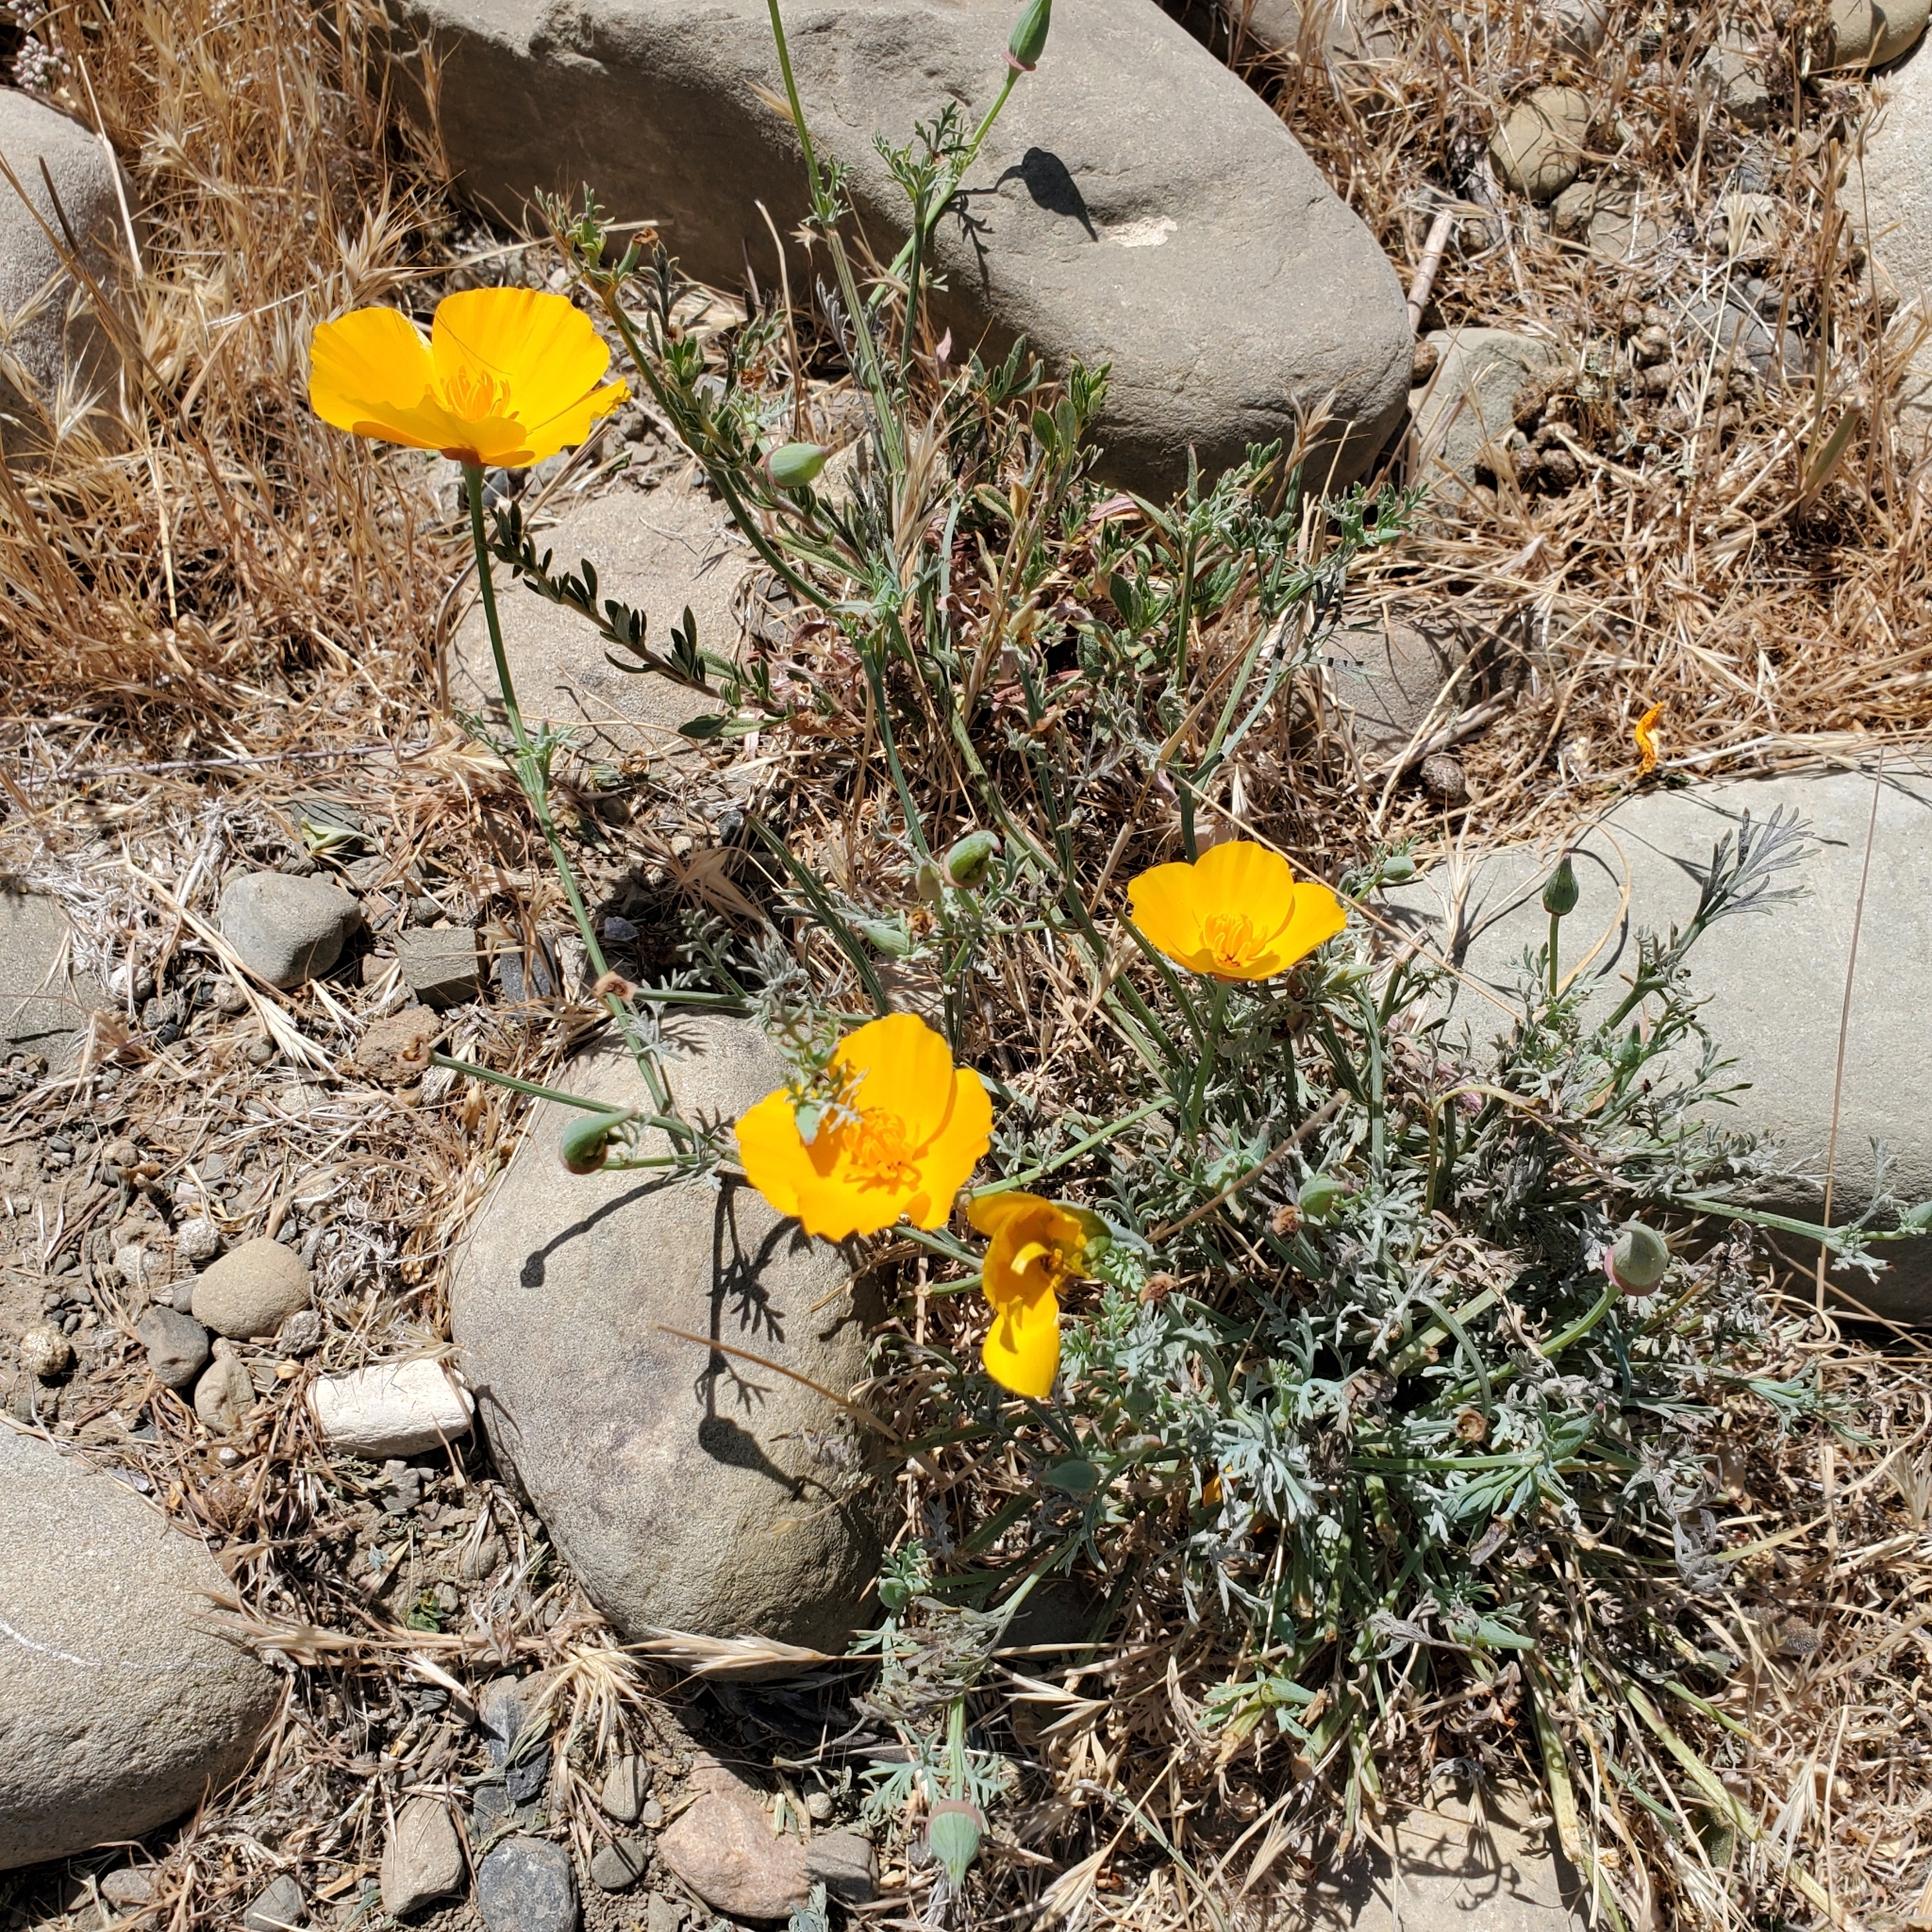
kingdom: Plantae
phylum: Tracheophyta
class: Magnoliopsida
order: Ranunculales
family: Papaveraceae
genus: Eschscholzia
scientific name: Eschscholzia californica
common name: California poppy
